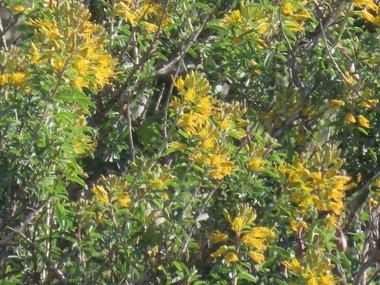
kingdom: Plantae
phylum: Tracheophyta
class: Magnoliopsida
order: Brassicales
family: Cleomaceae
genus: Cleomella
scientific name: Cleomella arborea
